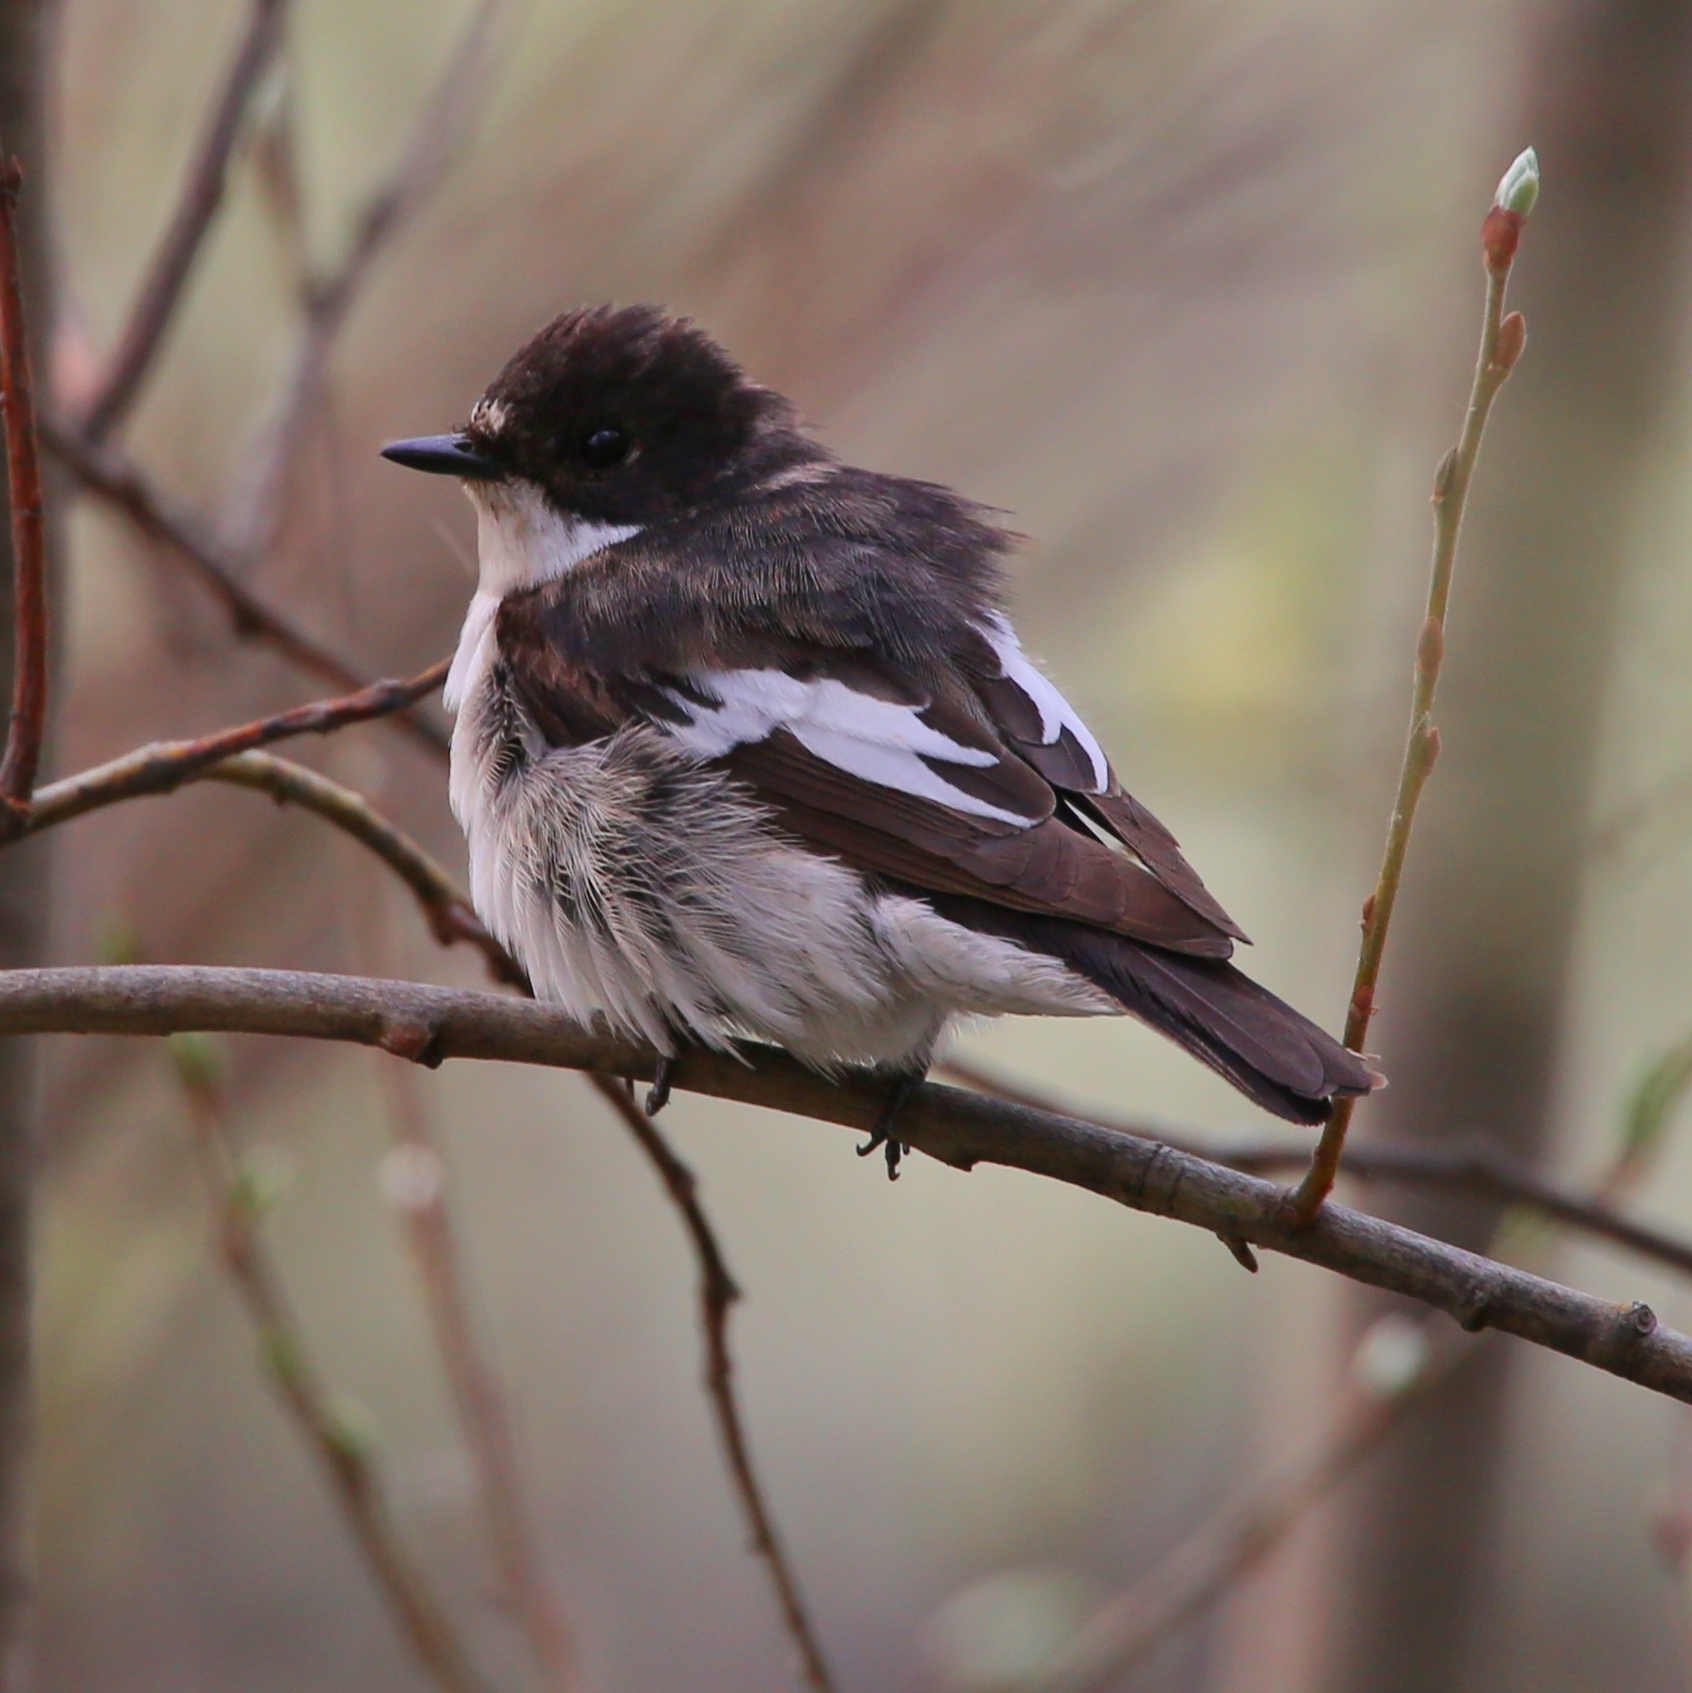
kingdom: Animalia
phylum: Chordata
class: Aves
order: Passeriformes
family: Muscicapidae
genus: Ficedula
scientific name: Ficedula hypoleuca
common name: European pied flycatcher
